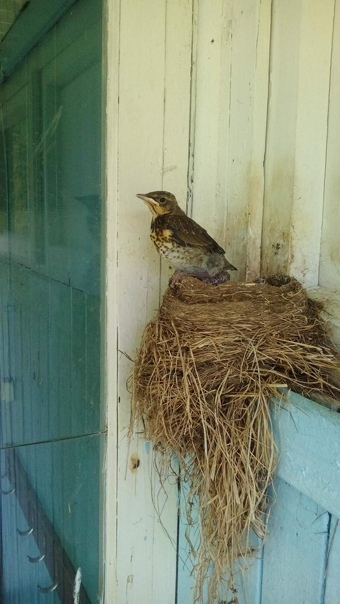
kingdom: Animalia
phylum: Chordata
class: Aves
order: Passeriformes
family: Turdidae
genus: Turdus
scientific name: Turdus pilaris
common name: Fieldfare
